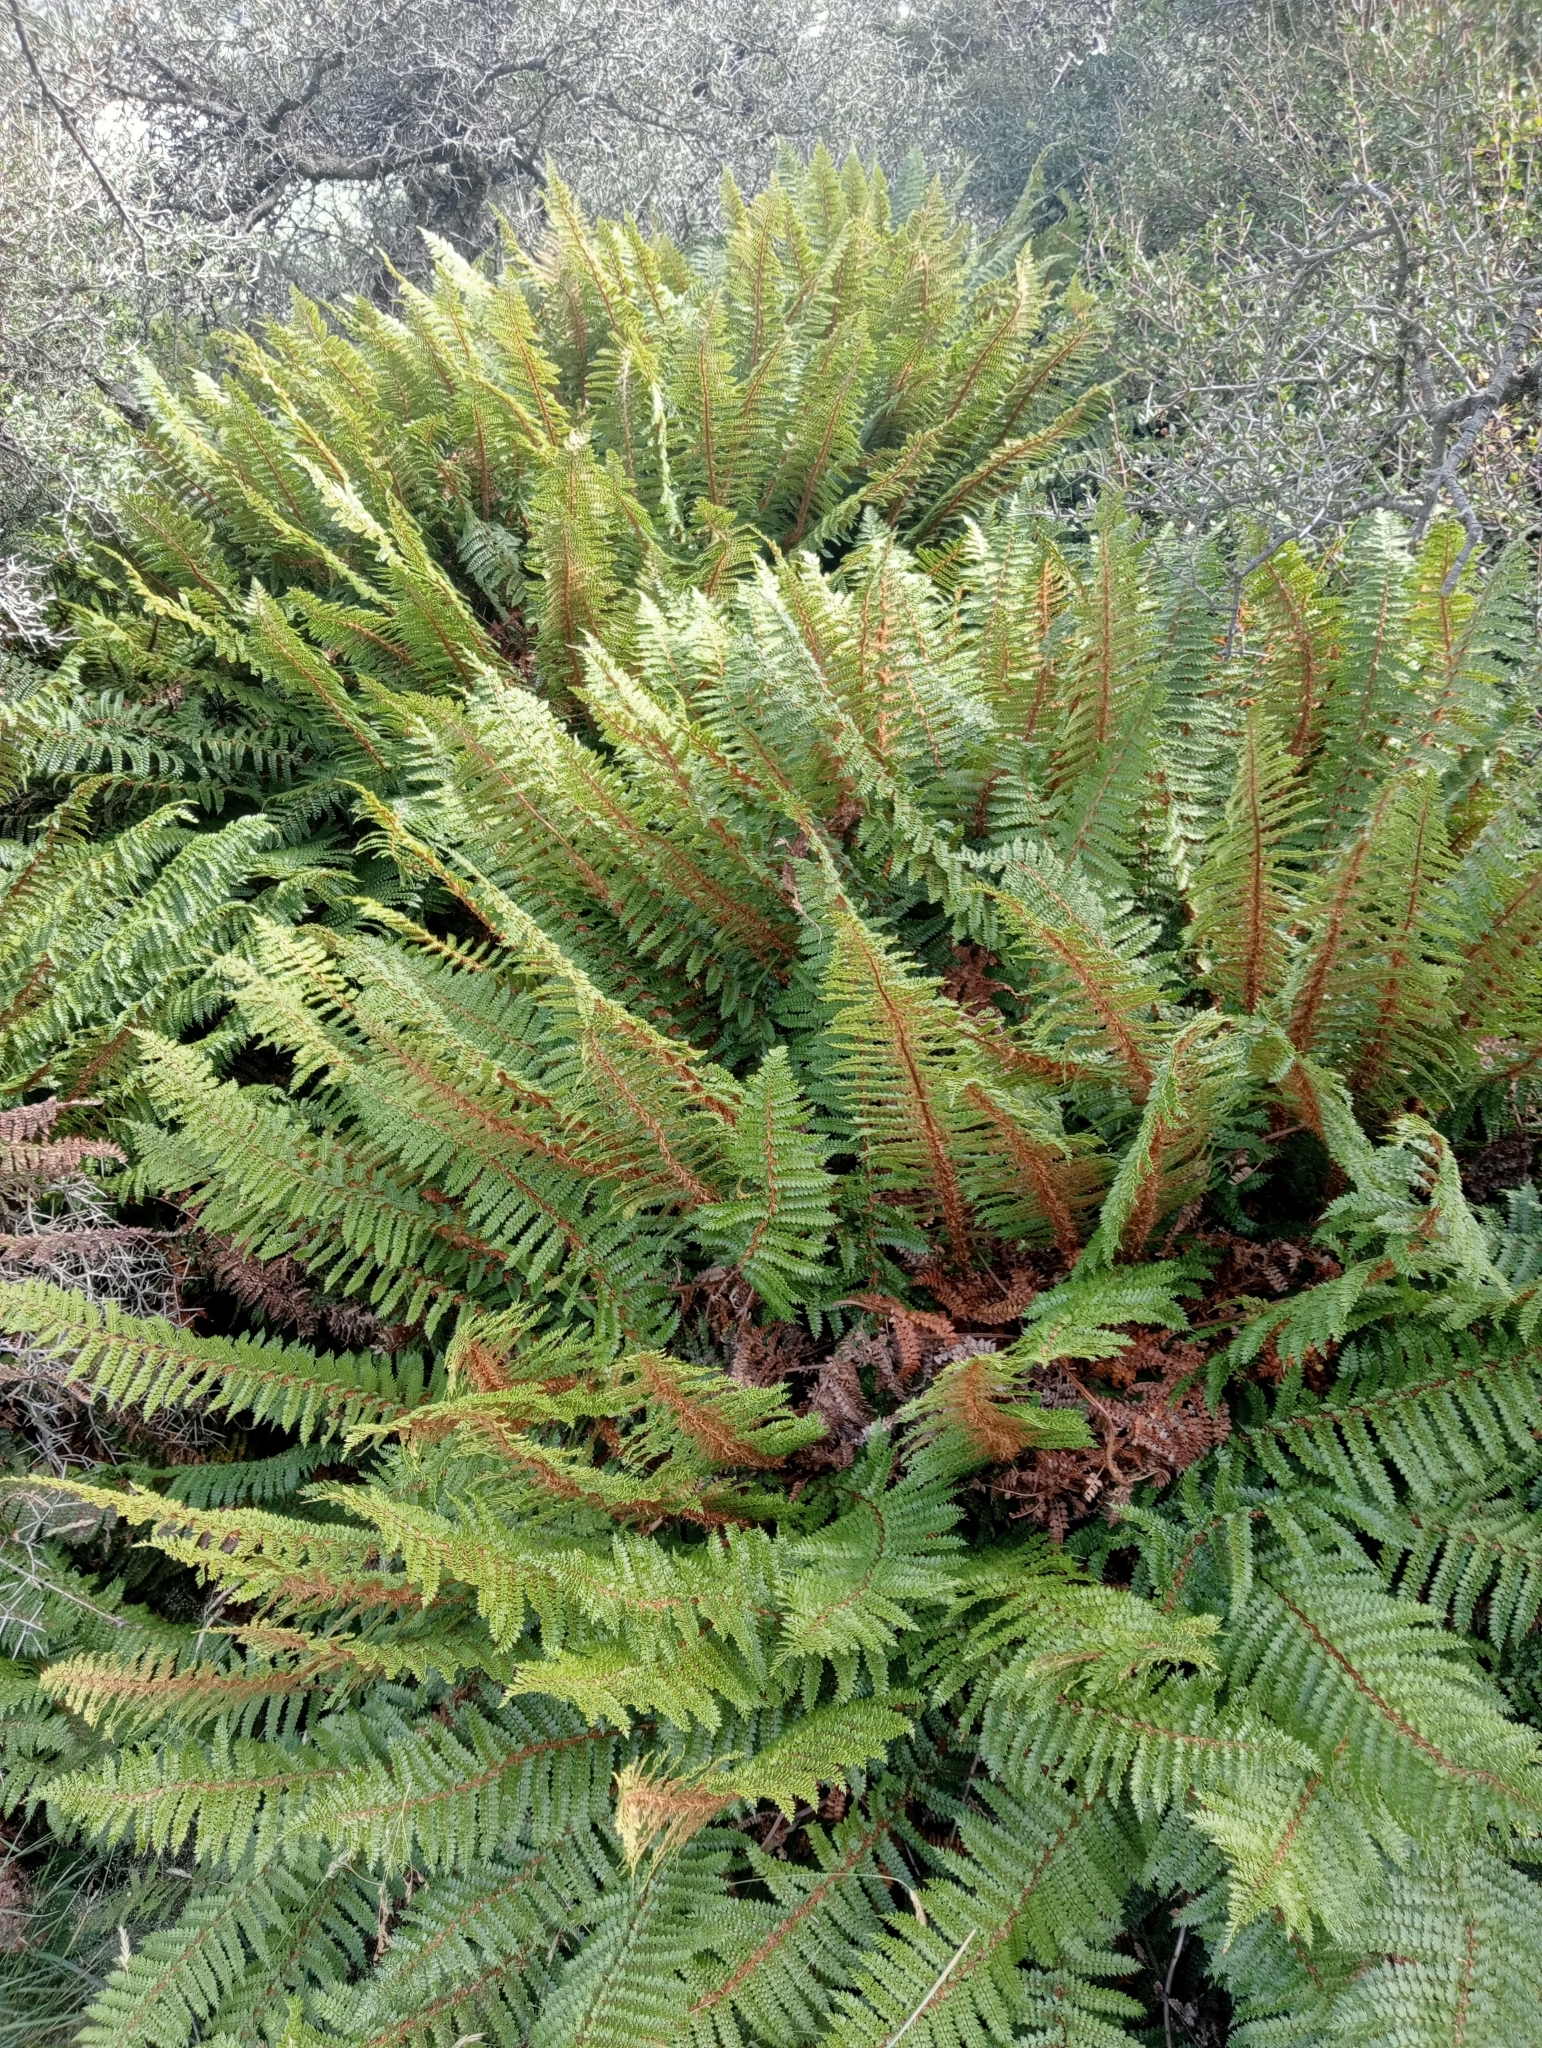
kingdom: Plantae
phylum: Tracheophyta
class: Polypodiopsida
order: Polypodiales
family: Dryopteridaceae
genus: Polystichum
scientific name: Polystichum vestitum
